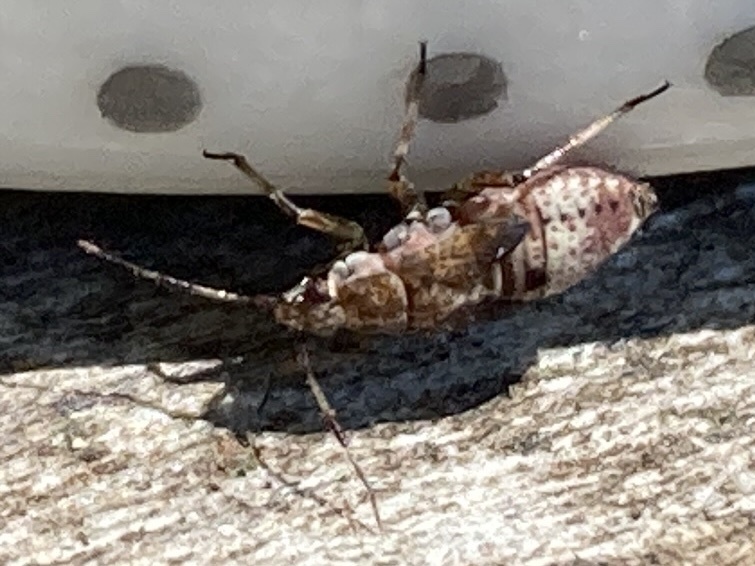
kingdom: Animalia
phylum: Arthropoda
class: Insecta
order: Hemiptera
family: Miridae
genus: Deraeocoris
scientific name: Deraeocoris flavilinea
